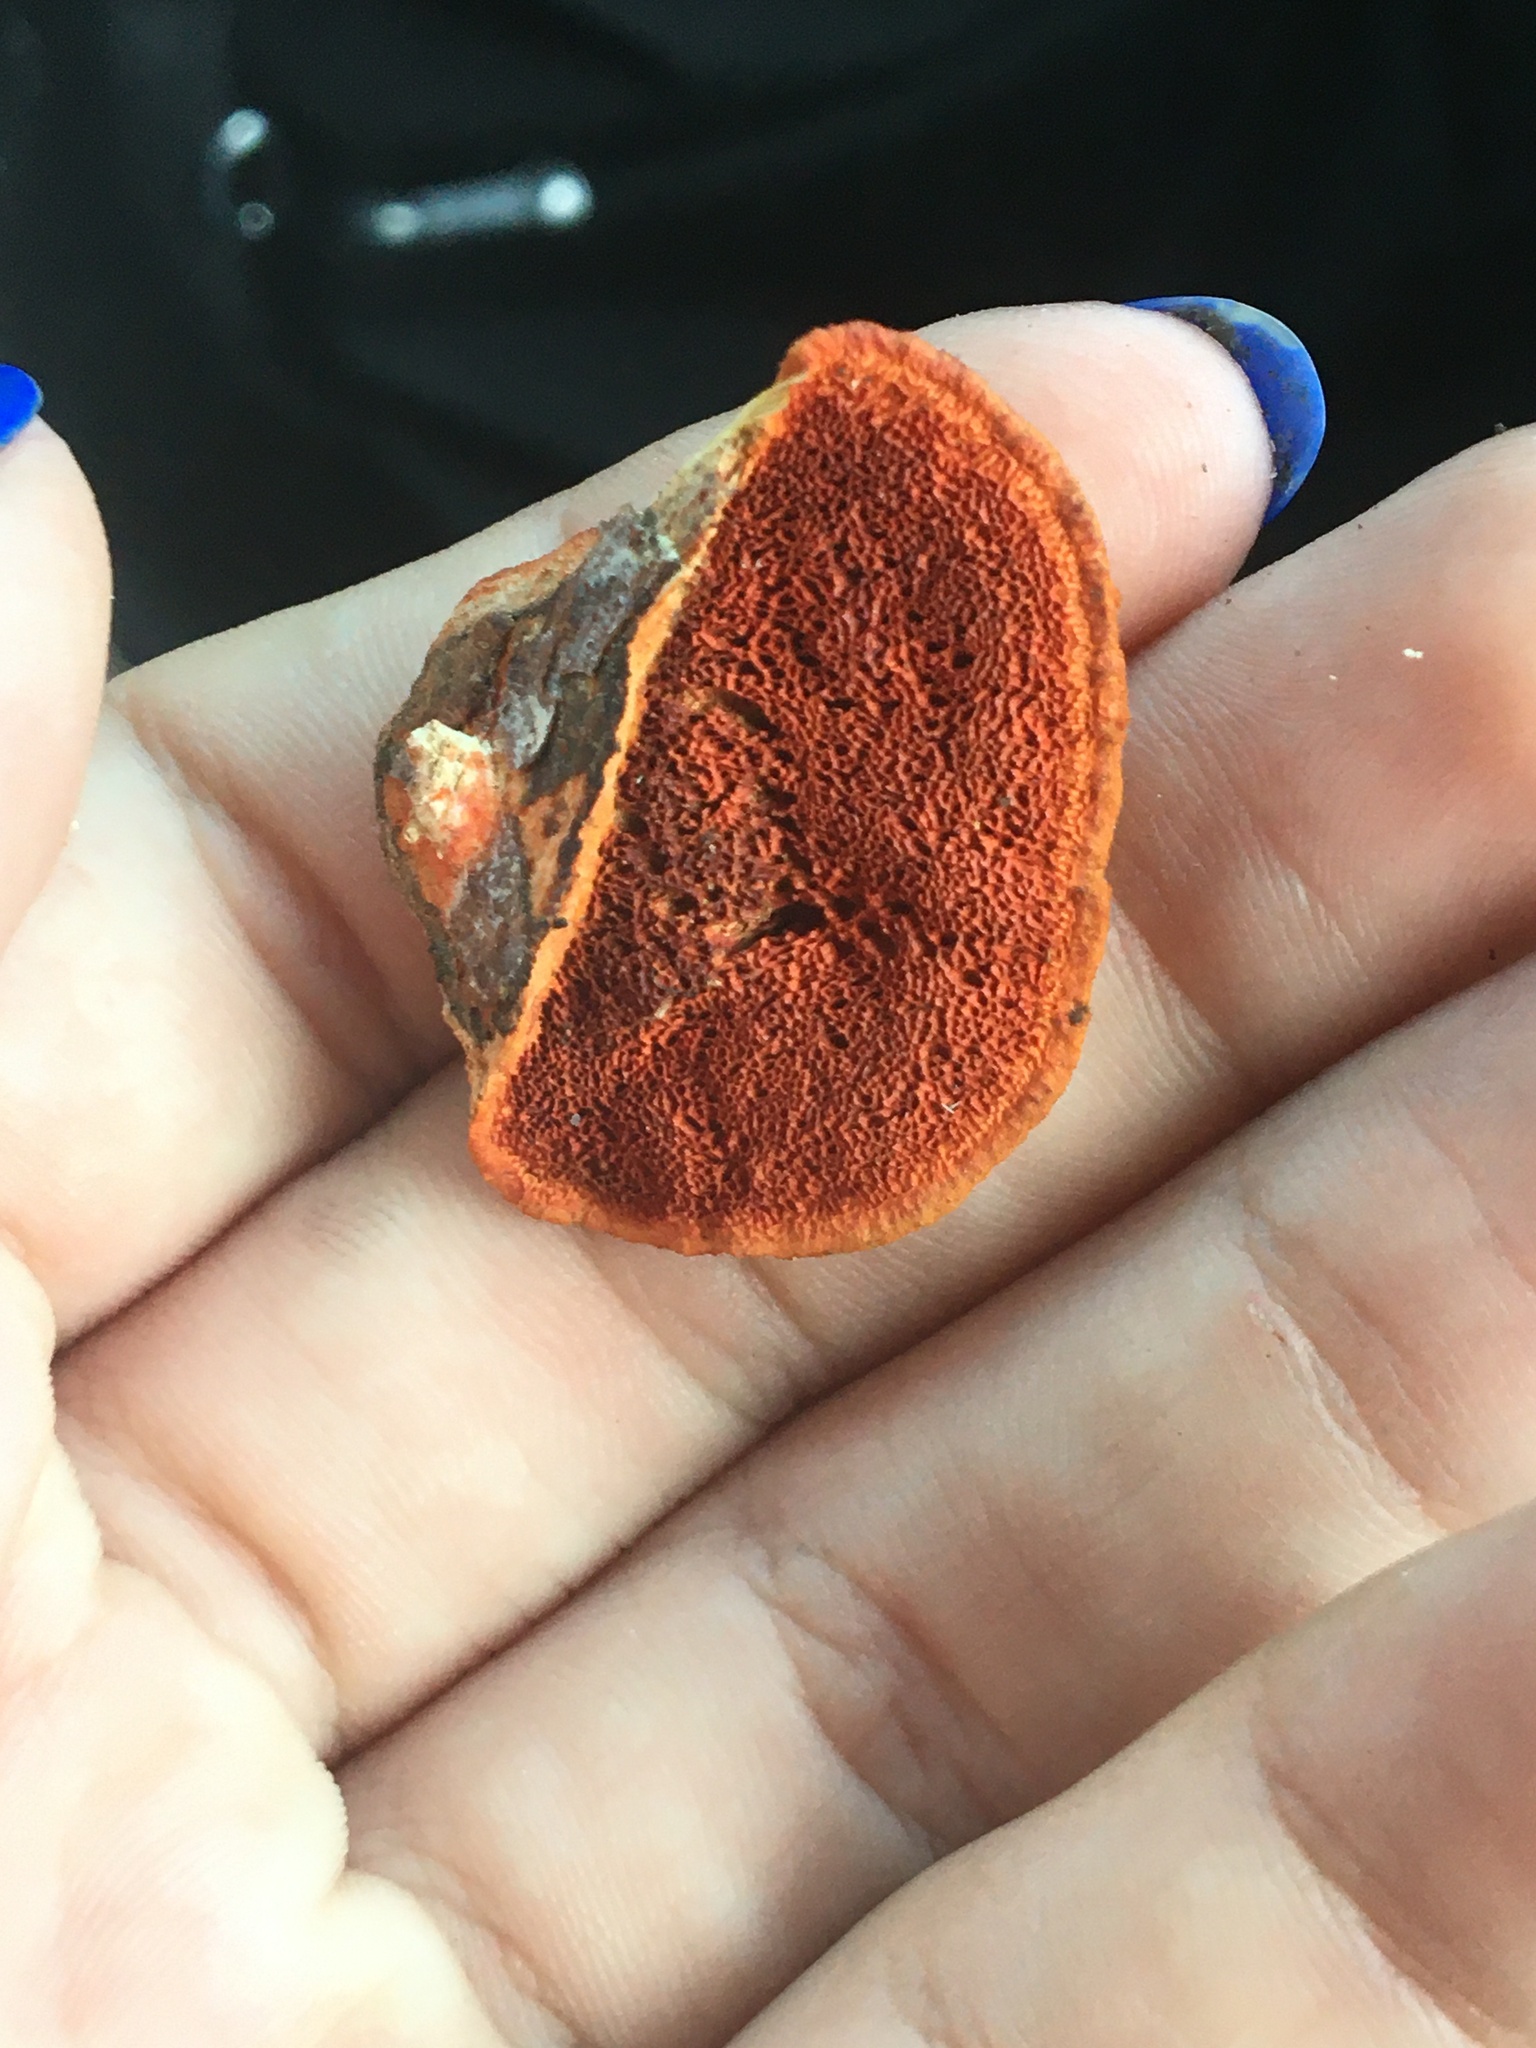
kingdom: Fungi
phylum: Basidiomycota
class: Agaricomycetes
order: Polyporales
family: Polyporaceae
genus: Trametes
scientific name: Trametes cinnabarina
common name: Northern cinnabar polypore
